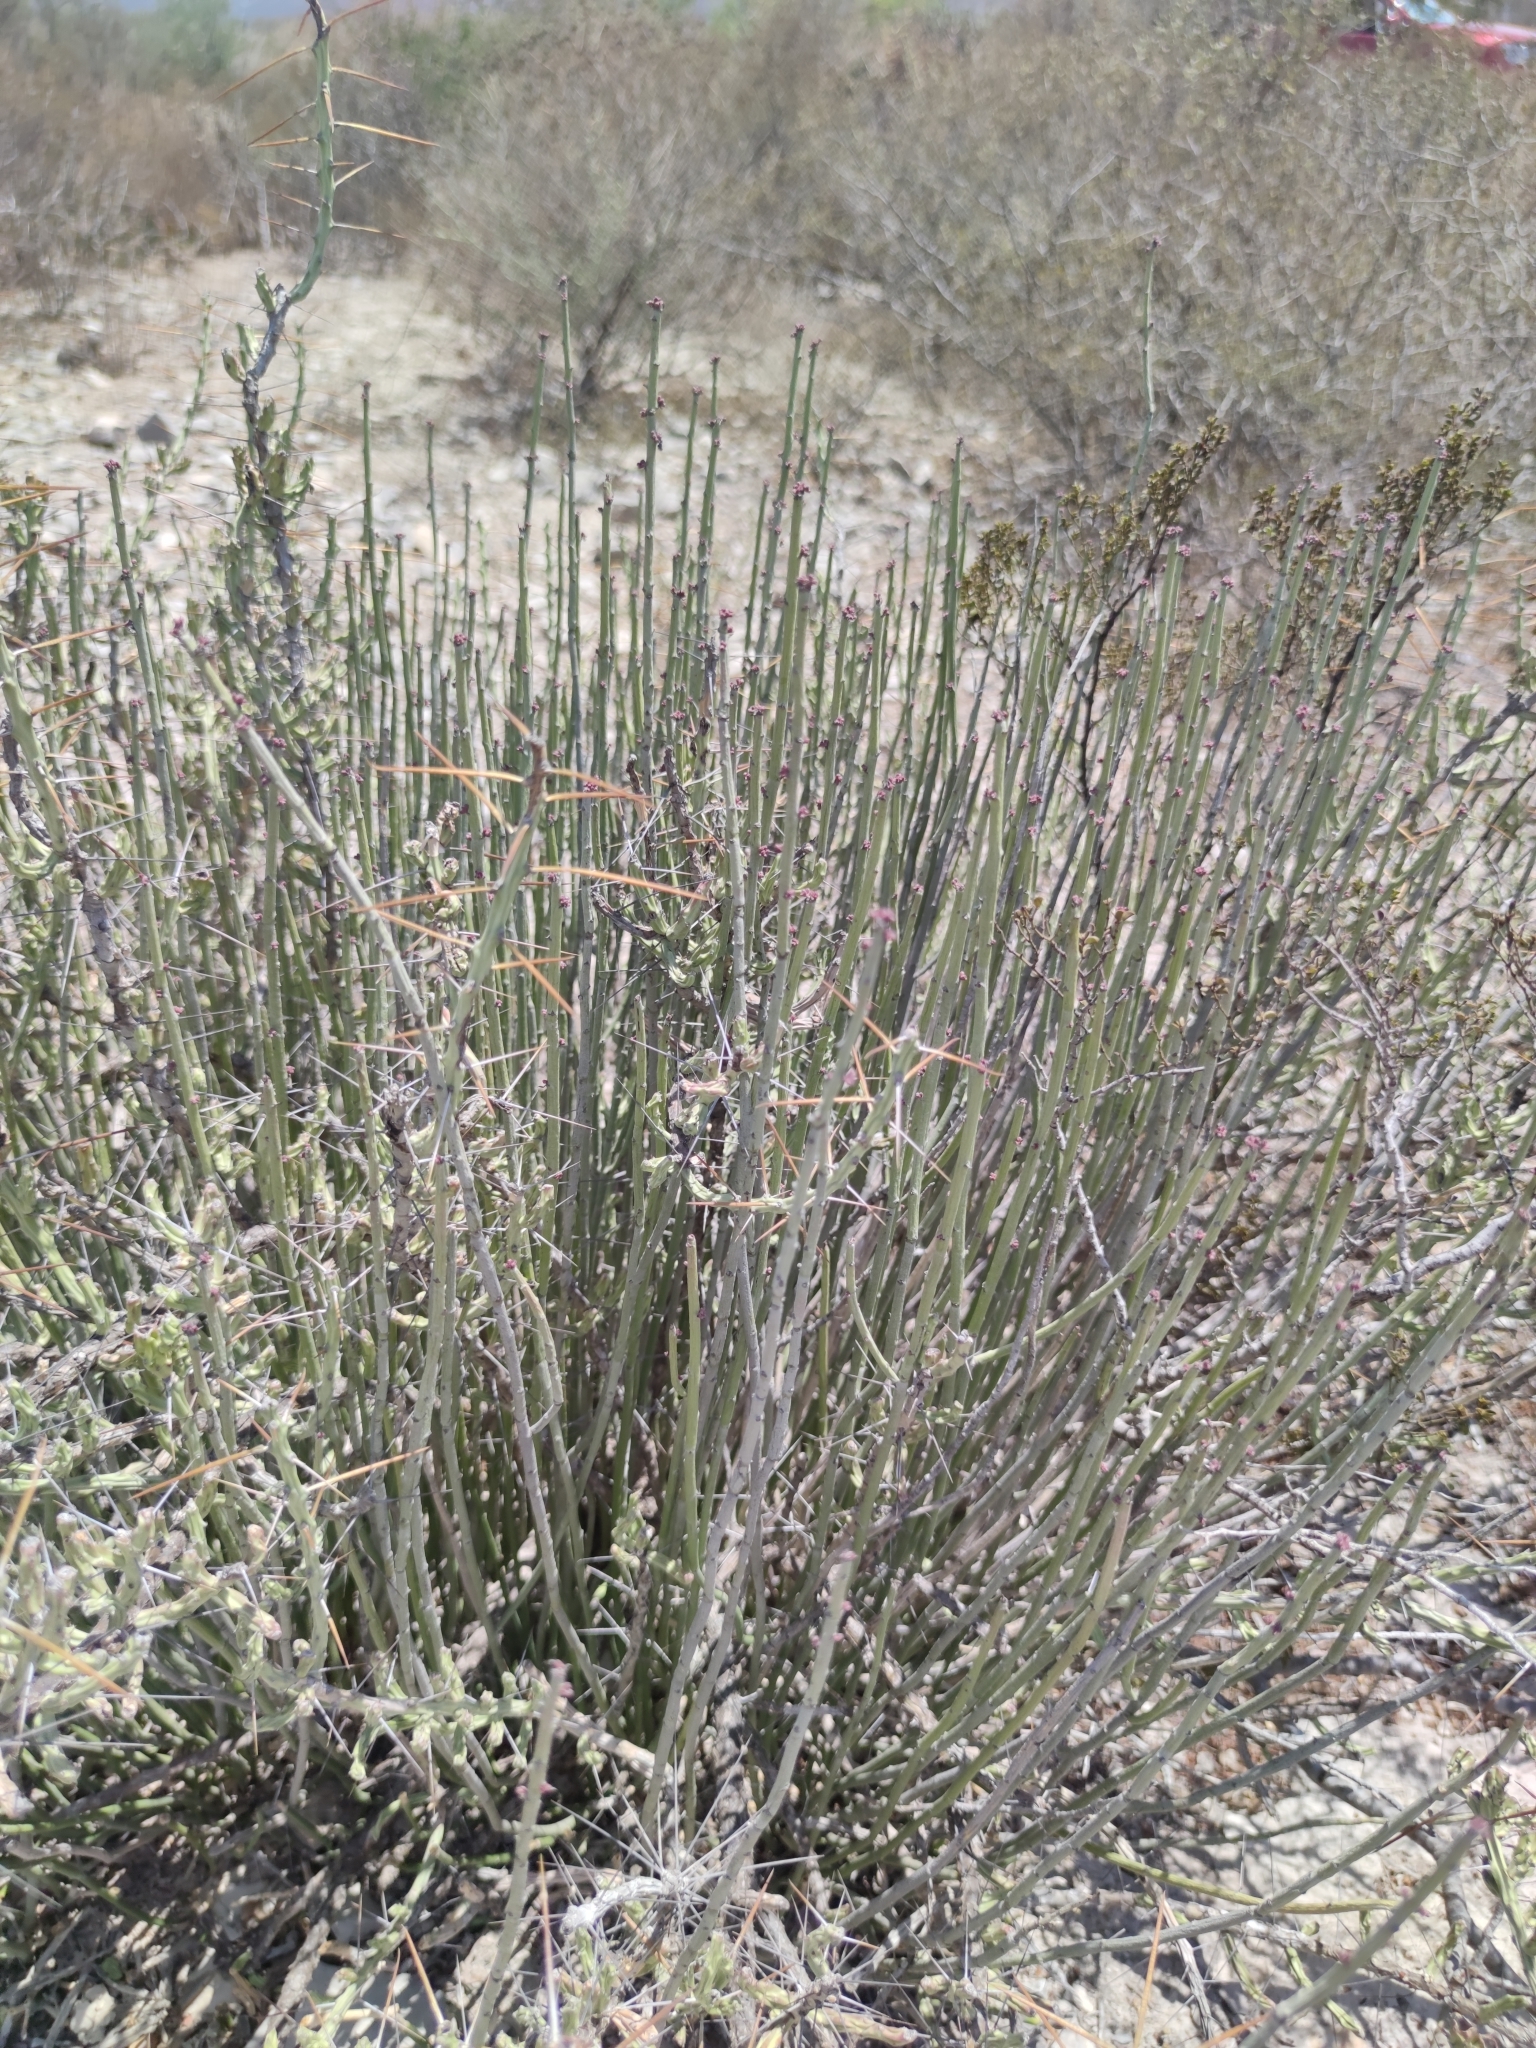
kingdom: Plantae
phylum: Tracheophyta
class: Magnoliopsida
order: Malpighiales
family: Euphorbiaceae
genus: Euphorbia
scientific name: Euphorbia antisyphilitica
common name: Candelilla
